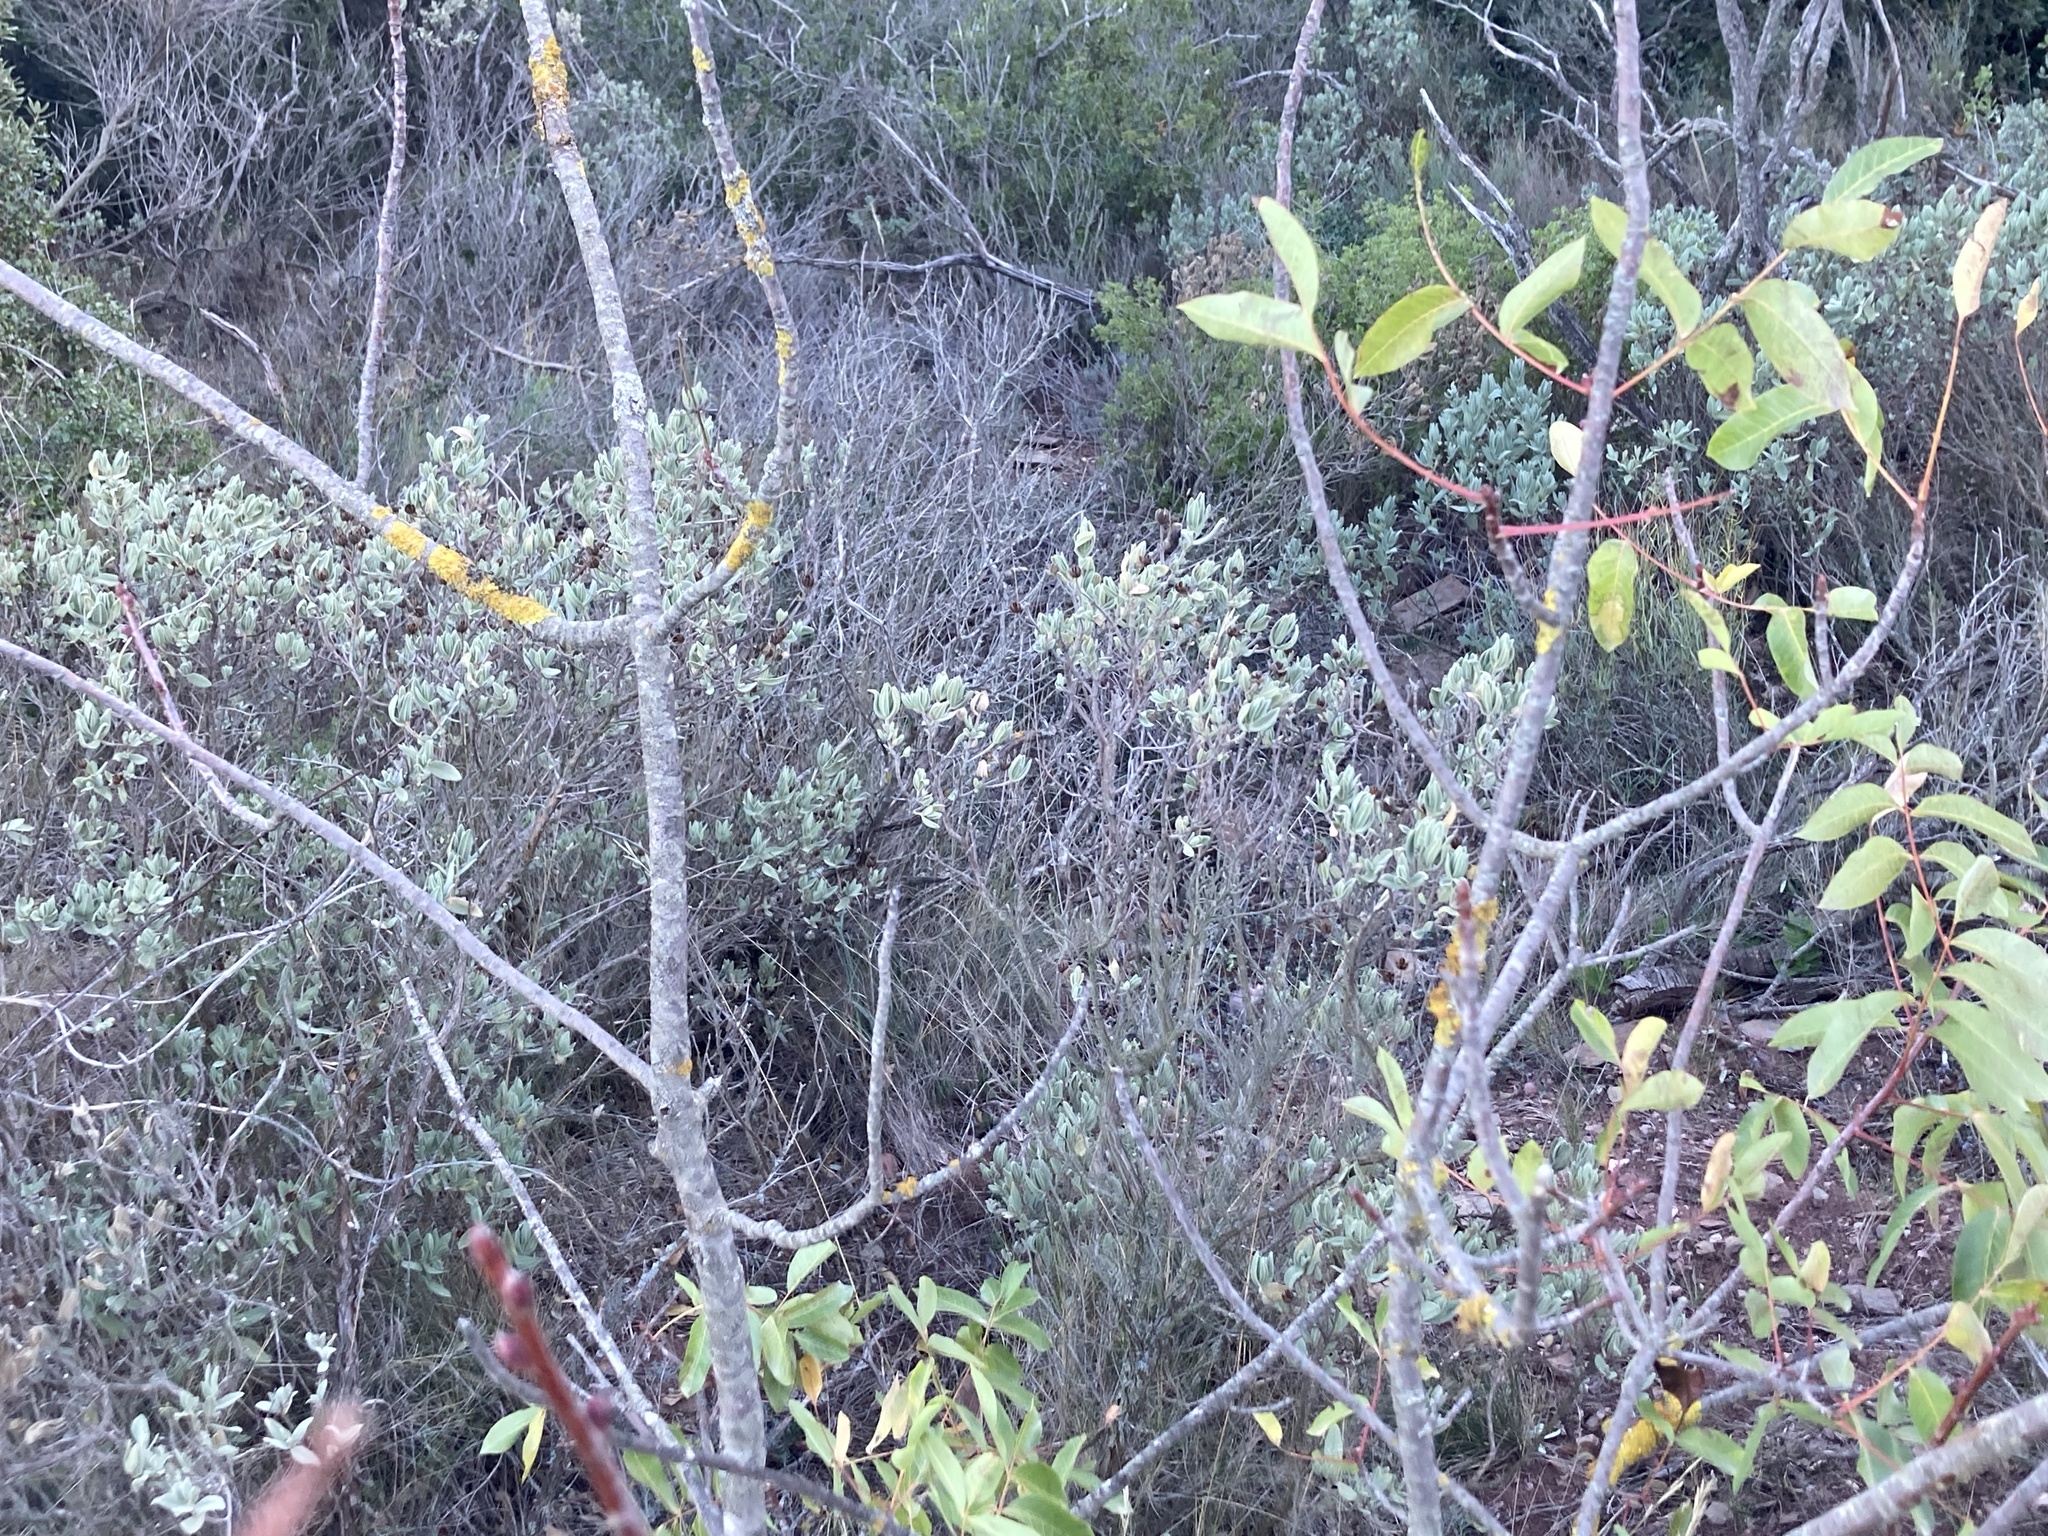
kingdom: Plantae
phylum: Tracheophyta
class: Magnoliopsida
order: Sapindales
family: Anacardiaceae
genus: Pistacia
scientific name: Pistacia terebinthus
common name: Terebinth
